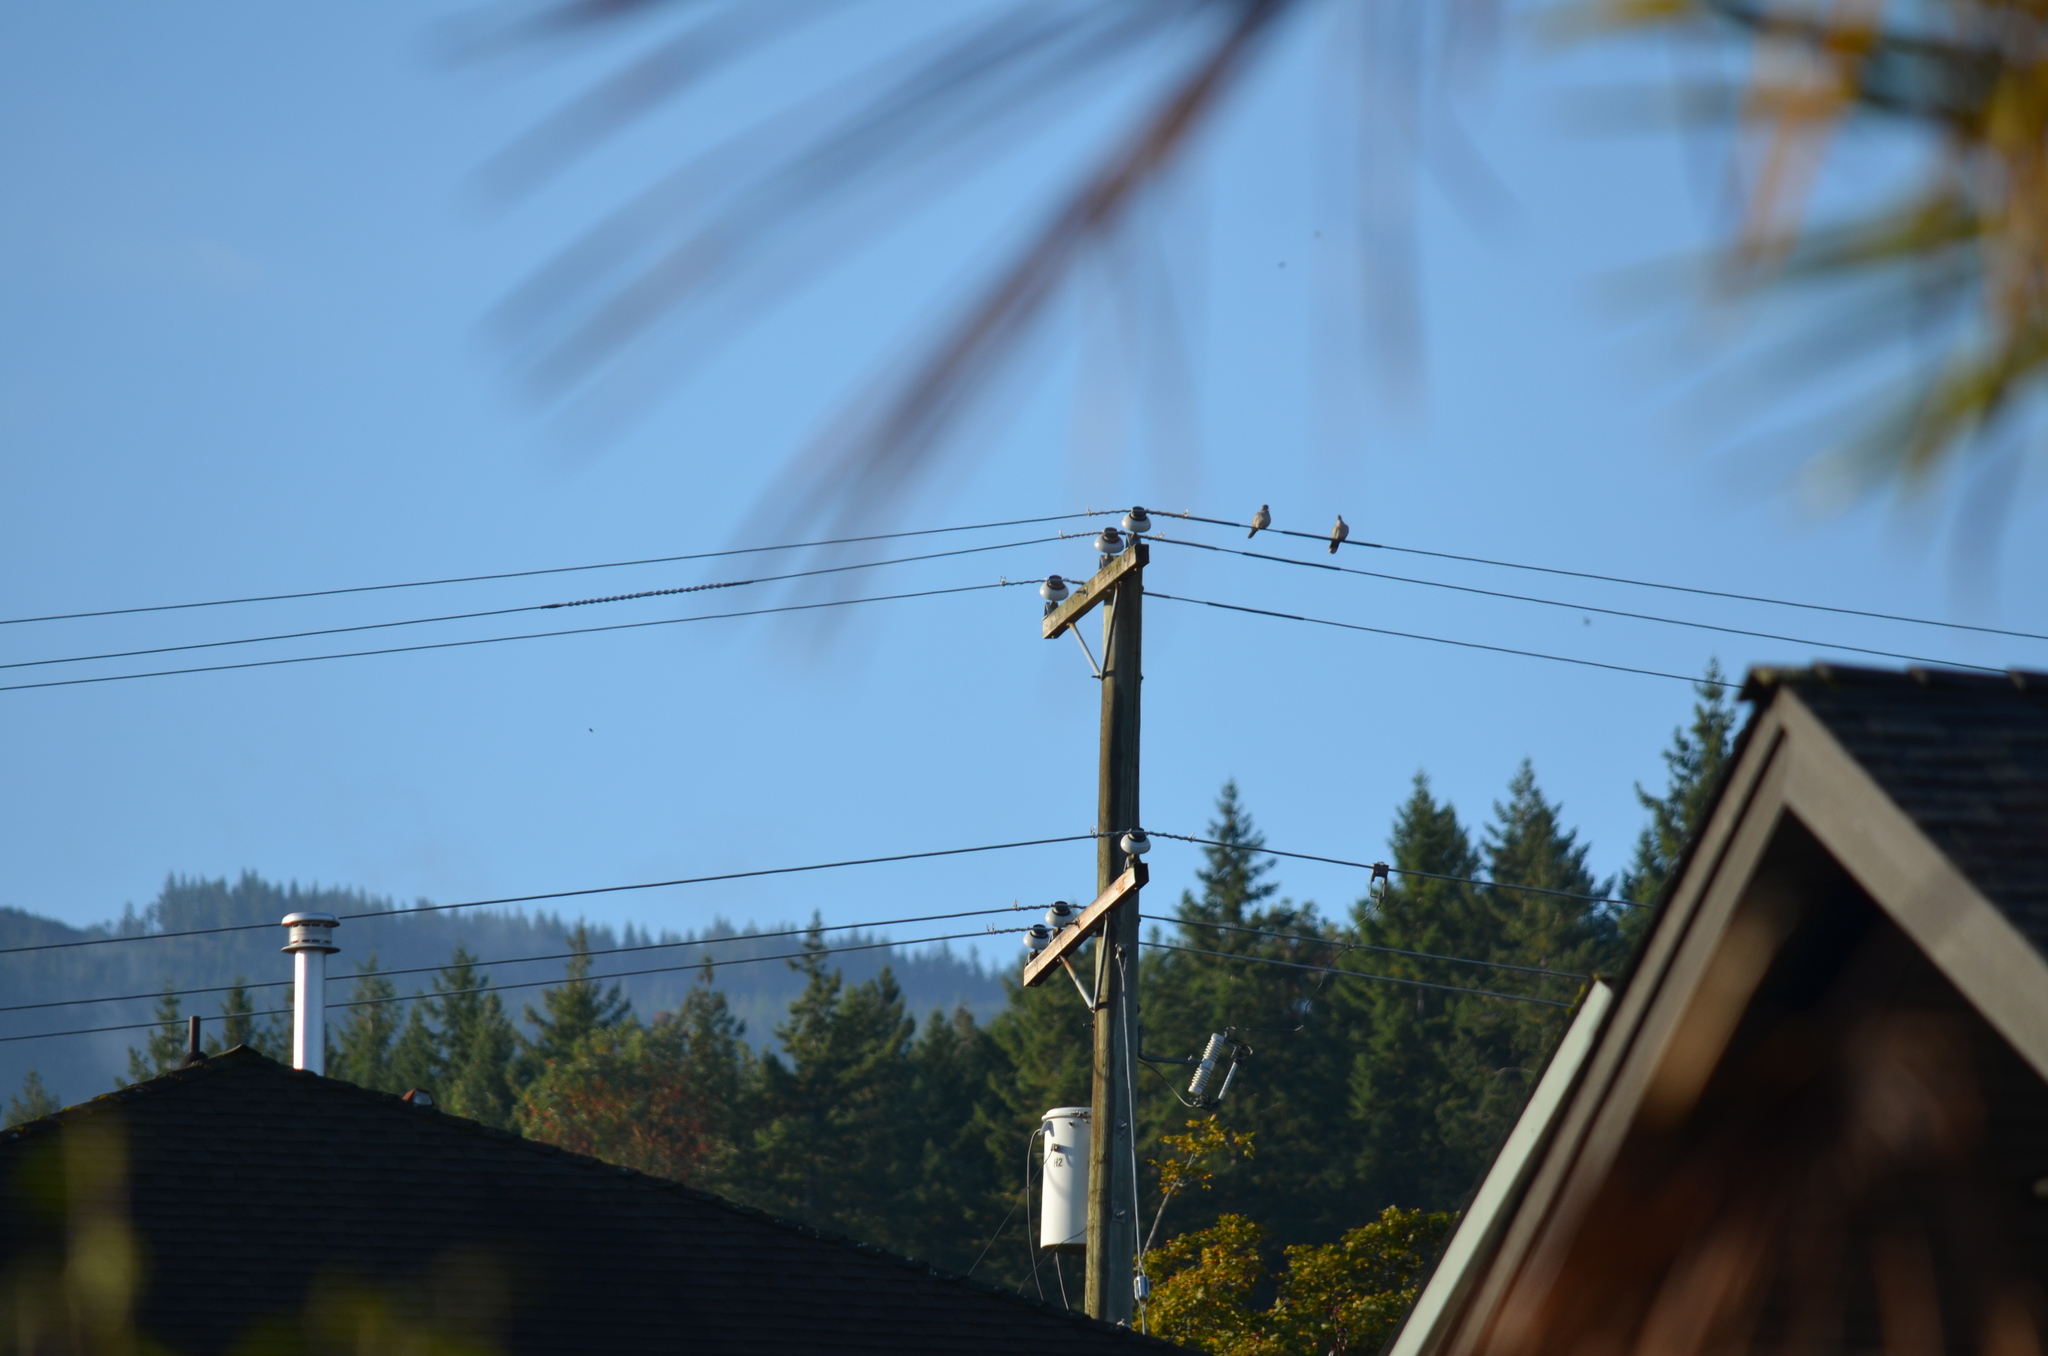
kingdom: Animalia
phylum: Chordata
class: Aves
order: Columbiformes
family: Columbidae
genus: Streptopelia
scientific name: Streptopelia decaocto
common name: Eurasian collared dove
